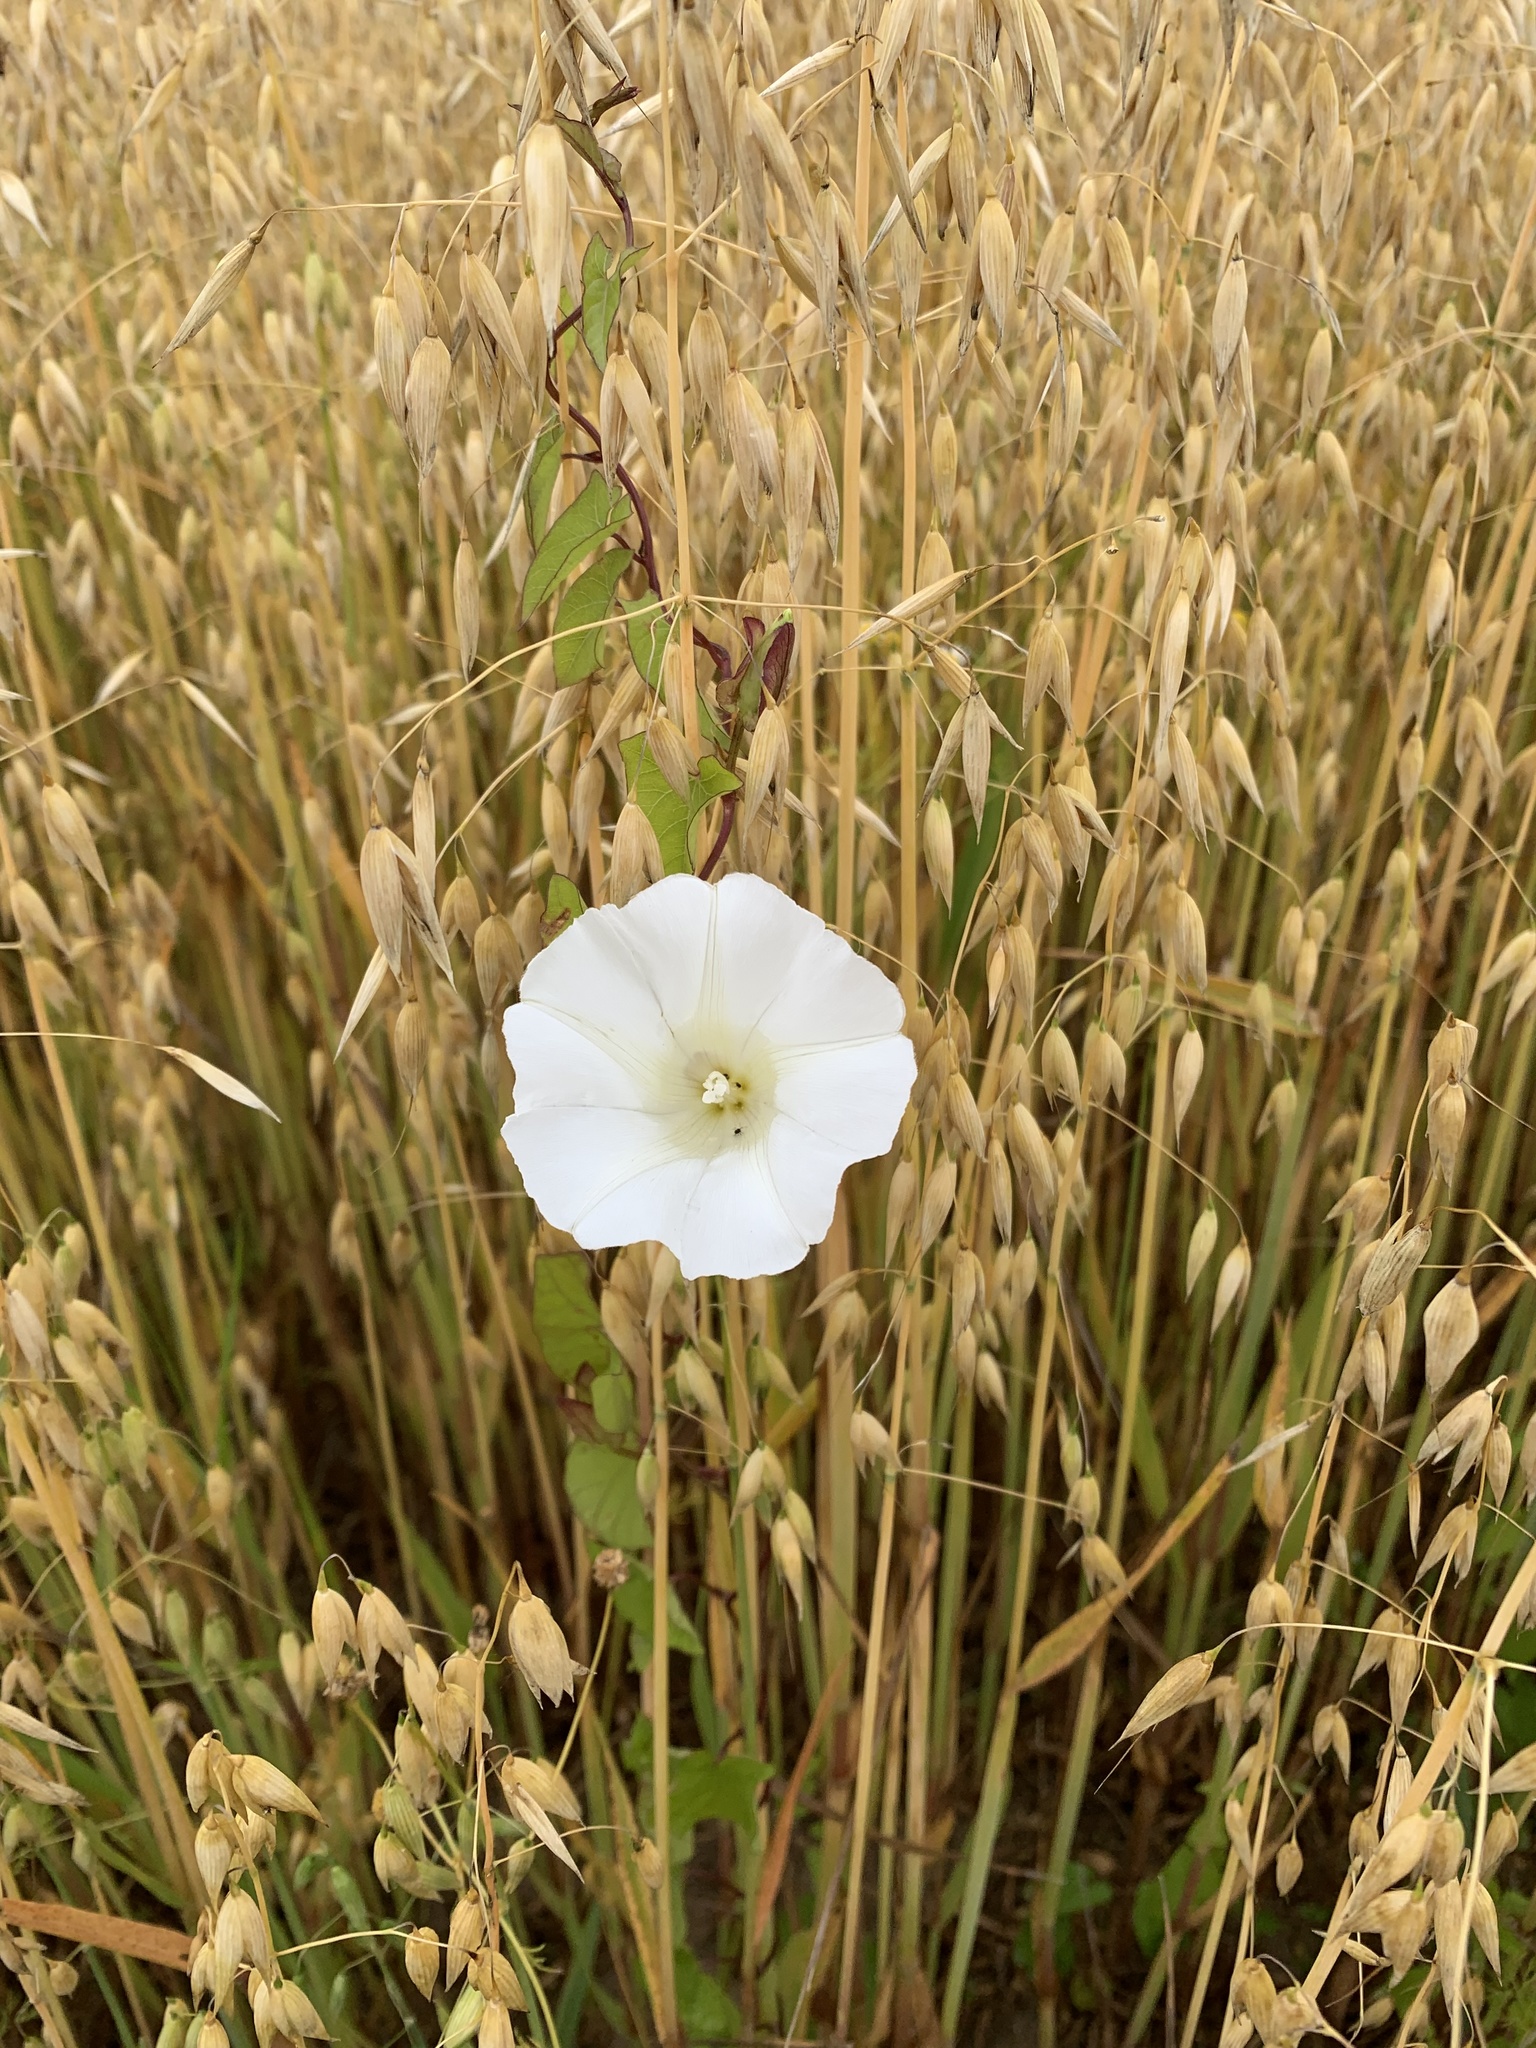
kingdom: Plantae
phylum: Tracheophyta
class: Magnoliopsida
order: Solanales
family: Convolvulaceae
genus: Calystegia
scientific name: Calystegia
